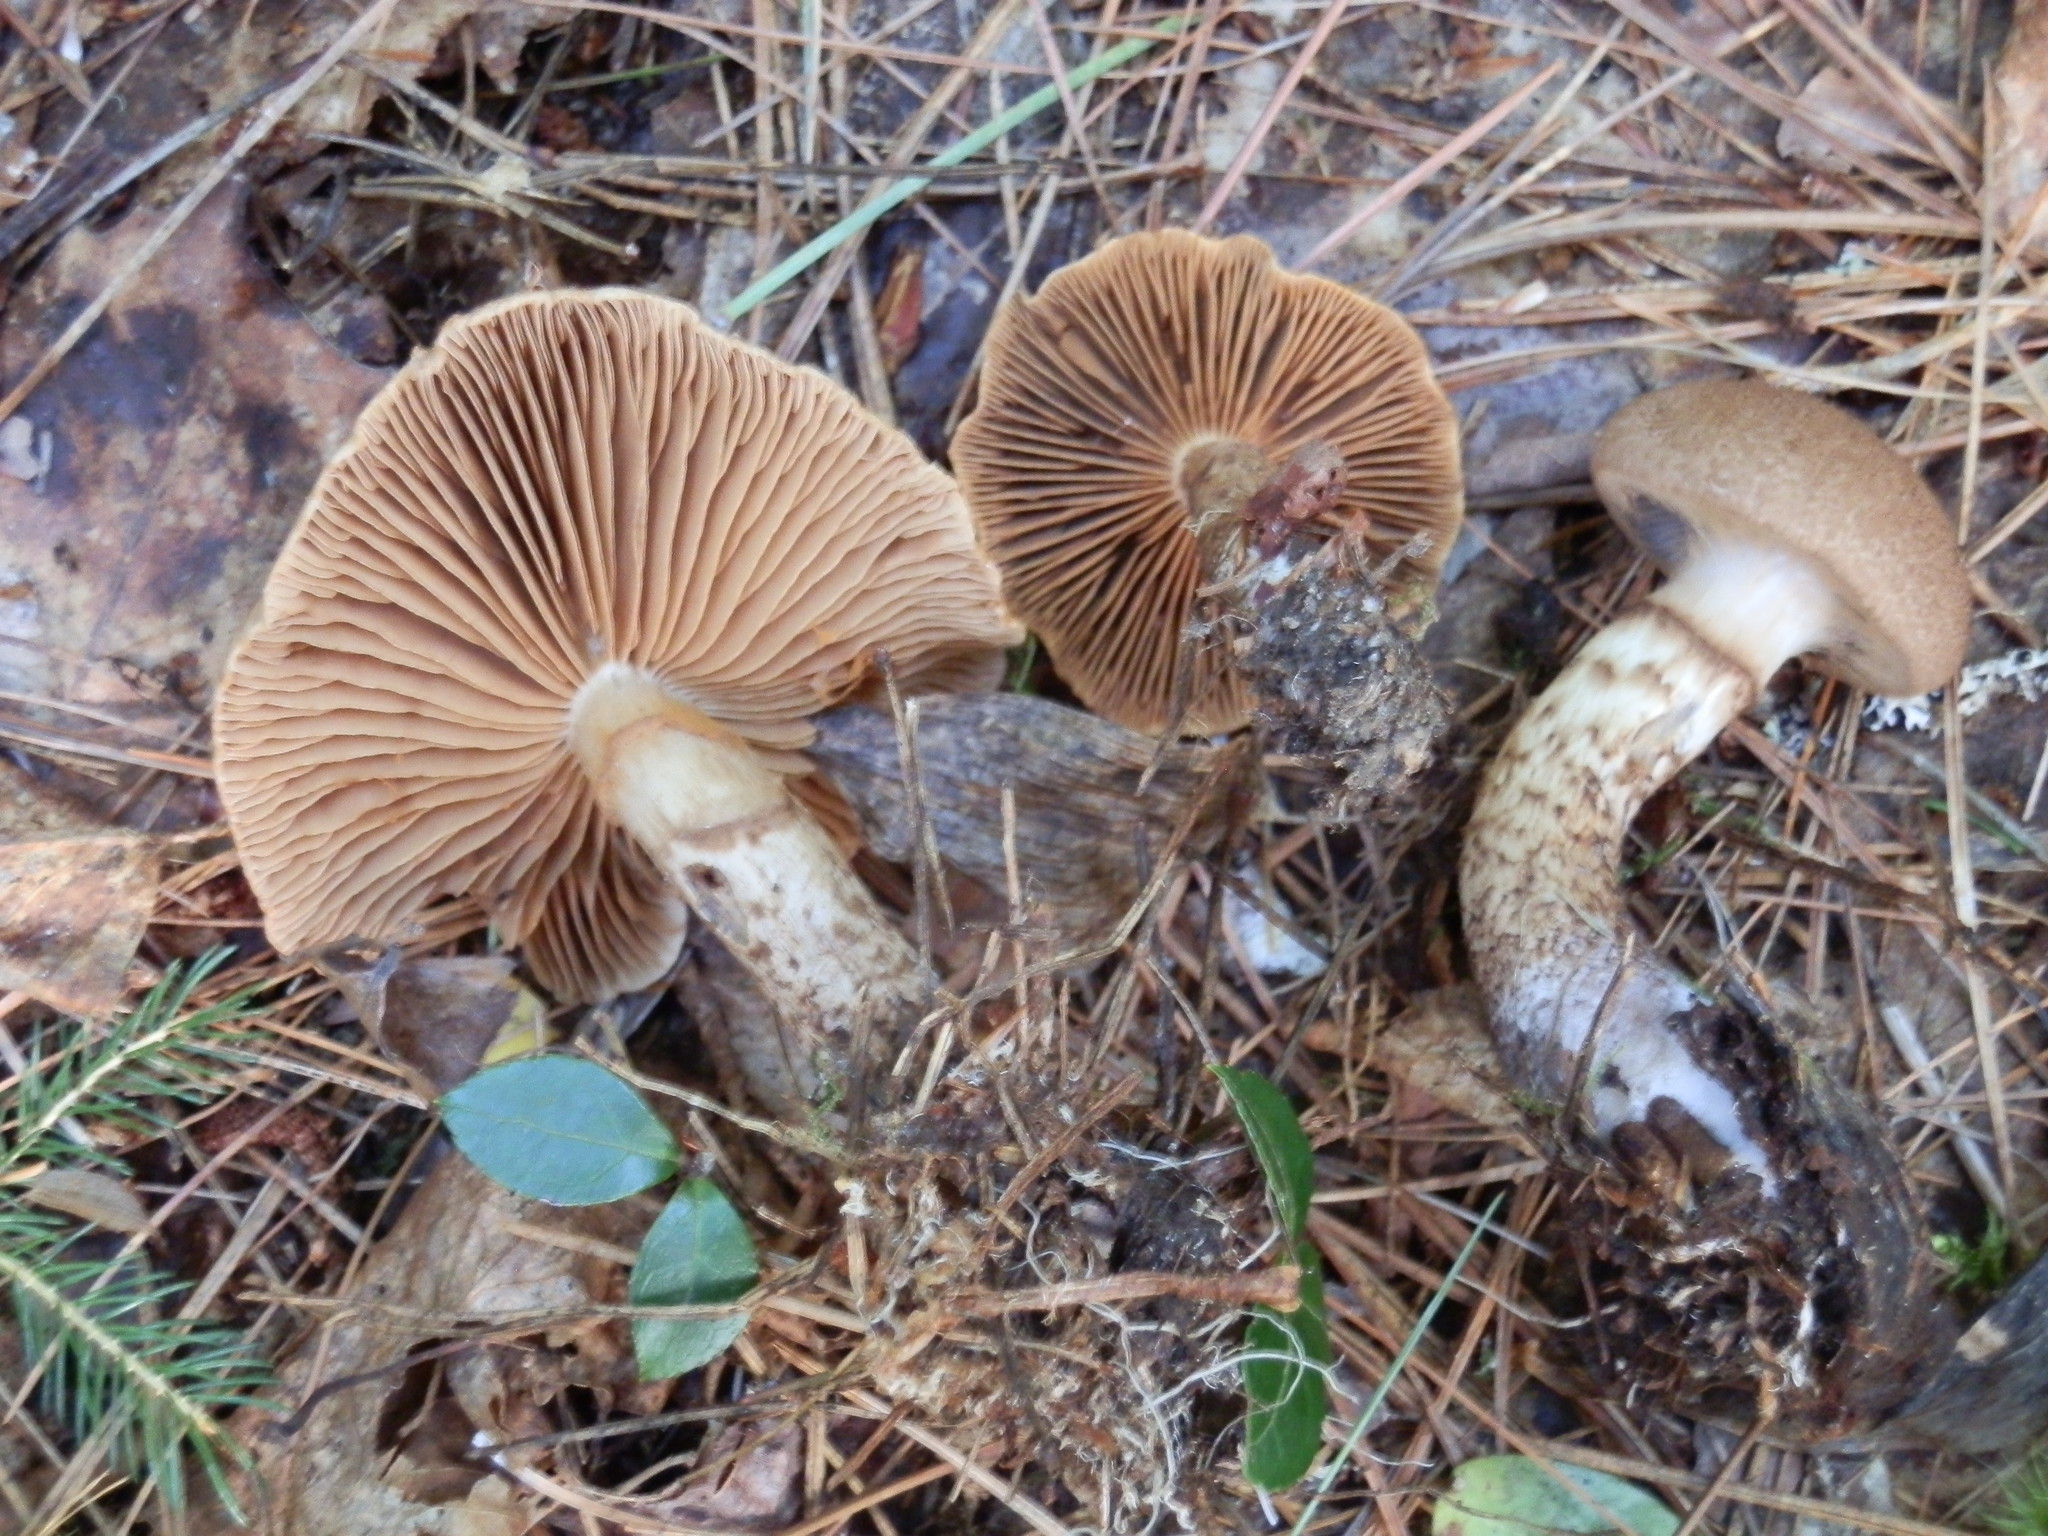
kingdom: Fungi
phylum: Basidiomycota
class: Agaricomycetes
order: Agaricales
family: Cortinariaceae
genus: Cortinarius
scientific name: Cortinarius pholideus
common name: Scaly webcap
